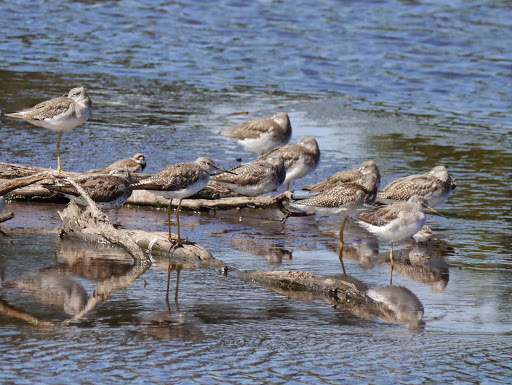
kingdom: Animalia
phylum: Chordata
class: Aves
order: Charadriiformes
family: Scolopacidae
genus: Tringa
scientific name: Tringa melanoleuca
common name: Greater yellowlegs
